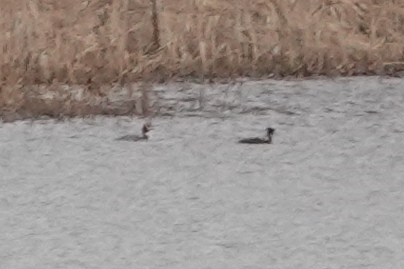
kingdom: Animalia
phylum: Chordata
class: Aves
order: Podicipediformes
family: Podicipedidae
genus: Podiceps
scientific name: Podiceps cristatus
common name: Great crested grebe
